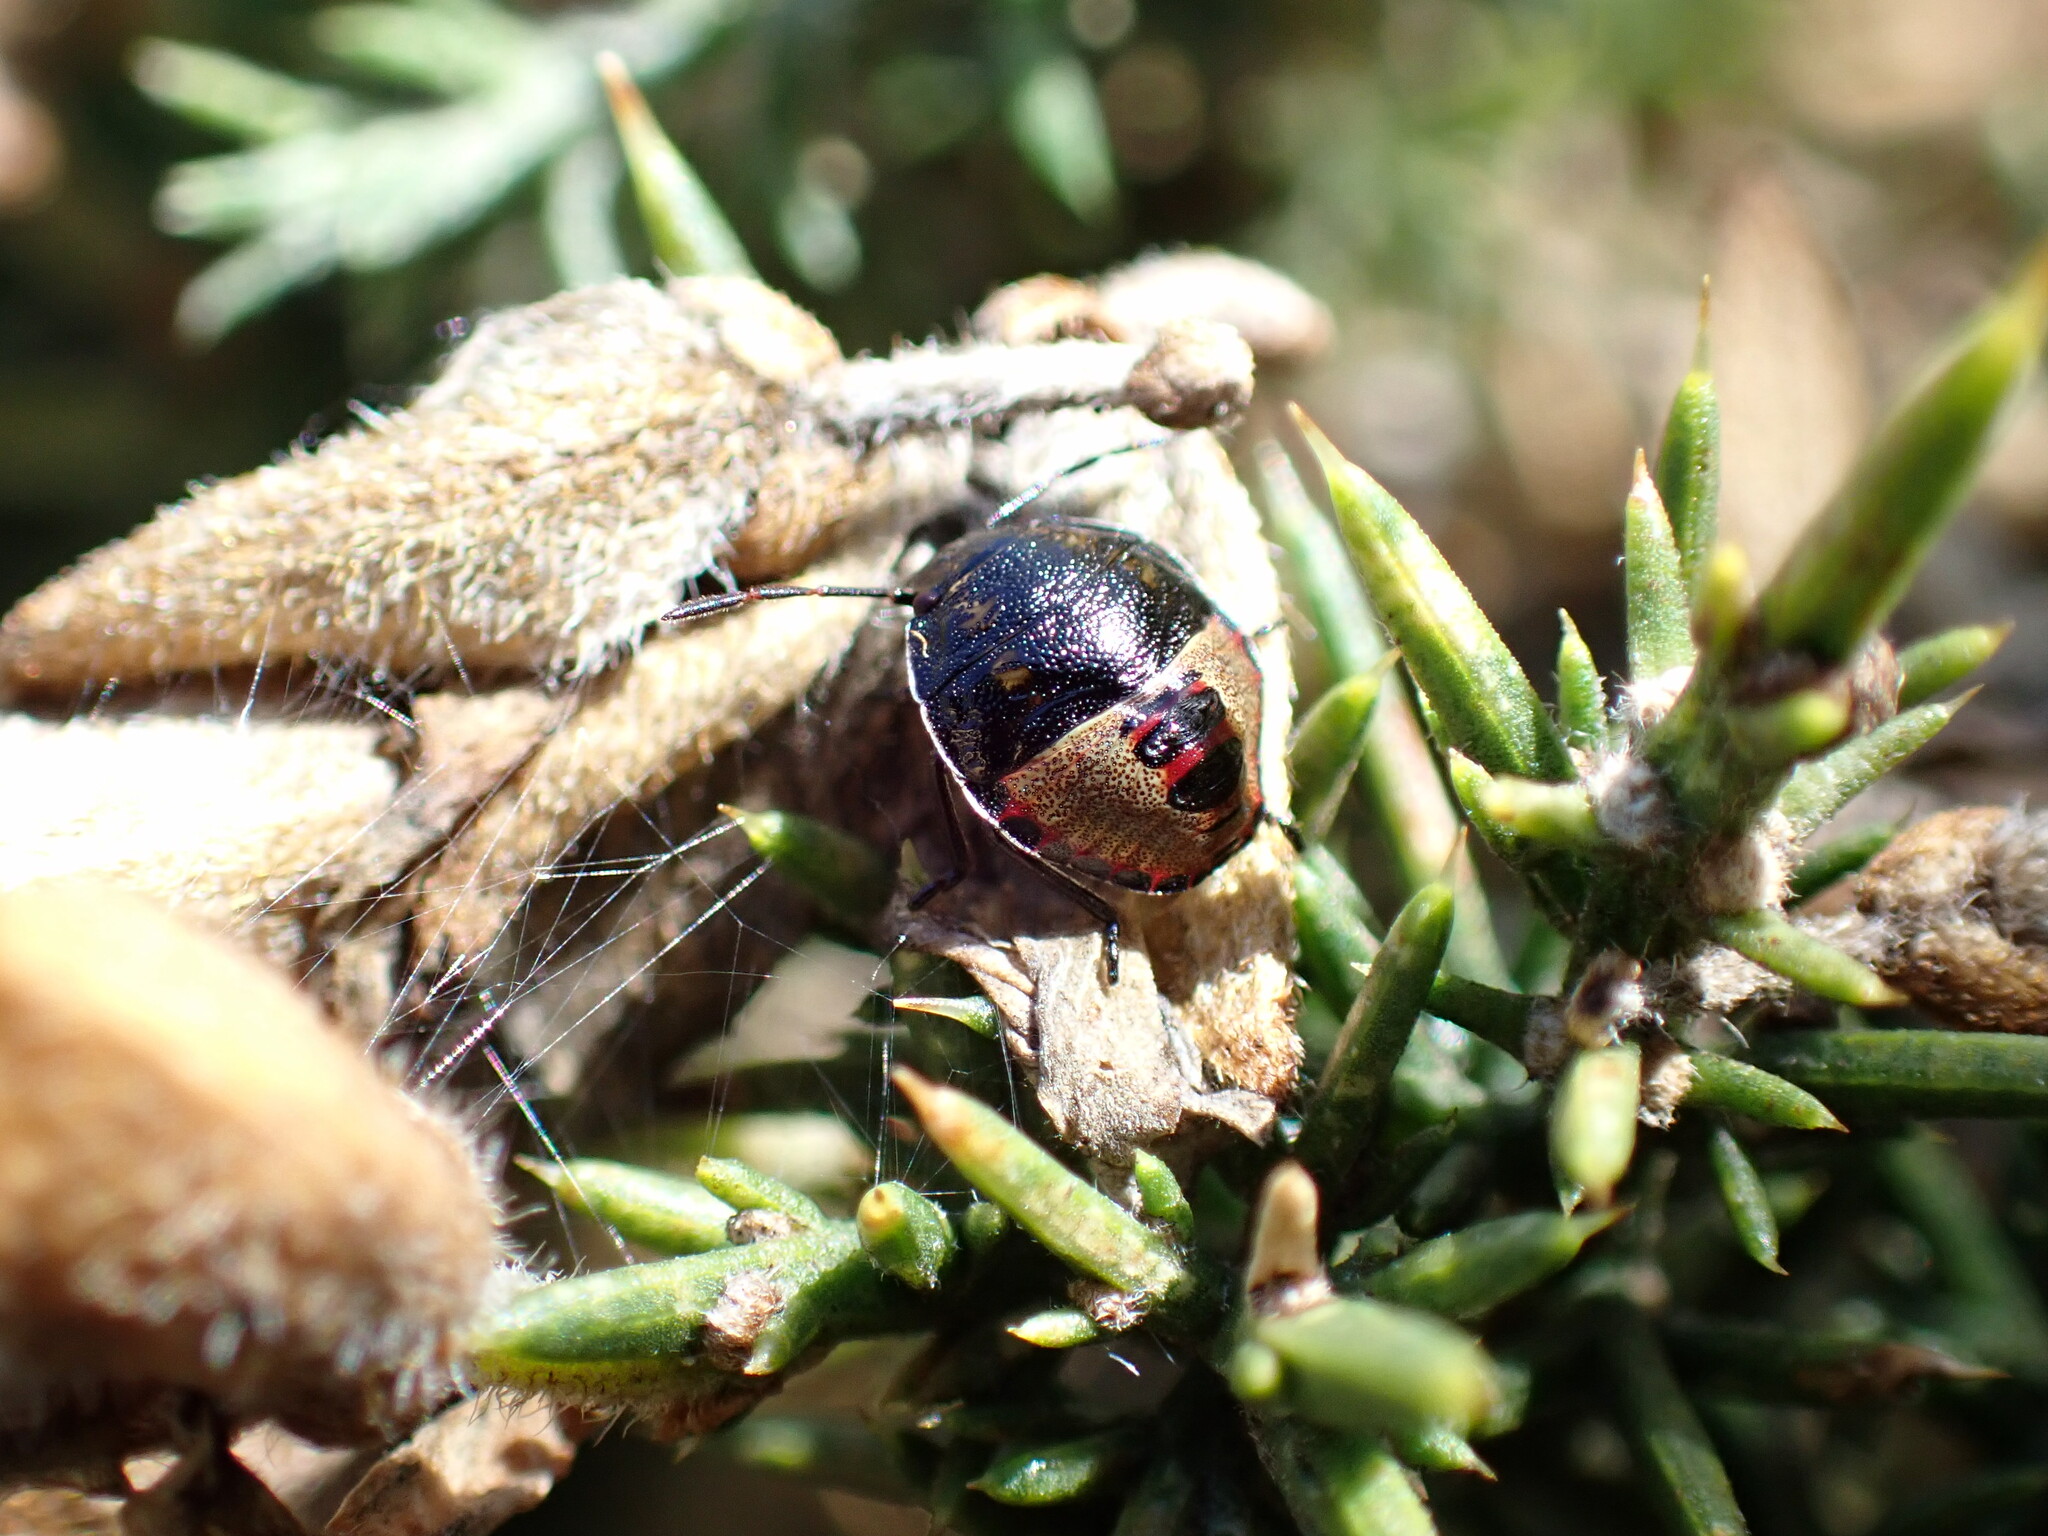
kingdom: Animalia
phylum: Arthropoda
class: Insecta
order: Hemiptera
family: Pentatomidae
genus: Piezodorus
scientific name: Piezodorus lituratus
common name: Stink bug
